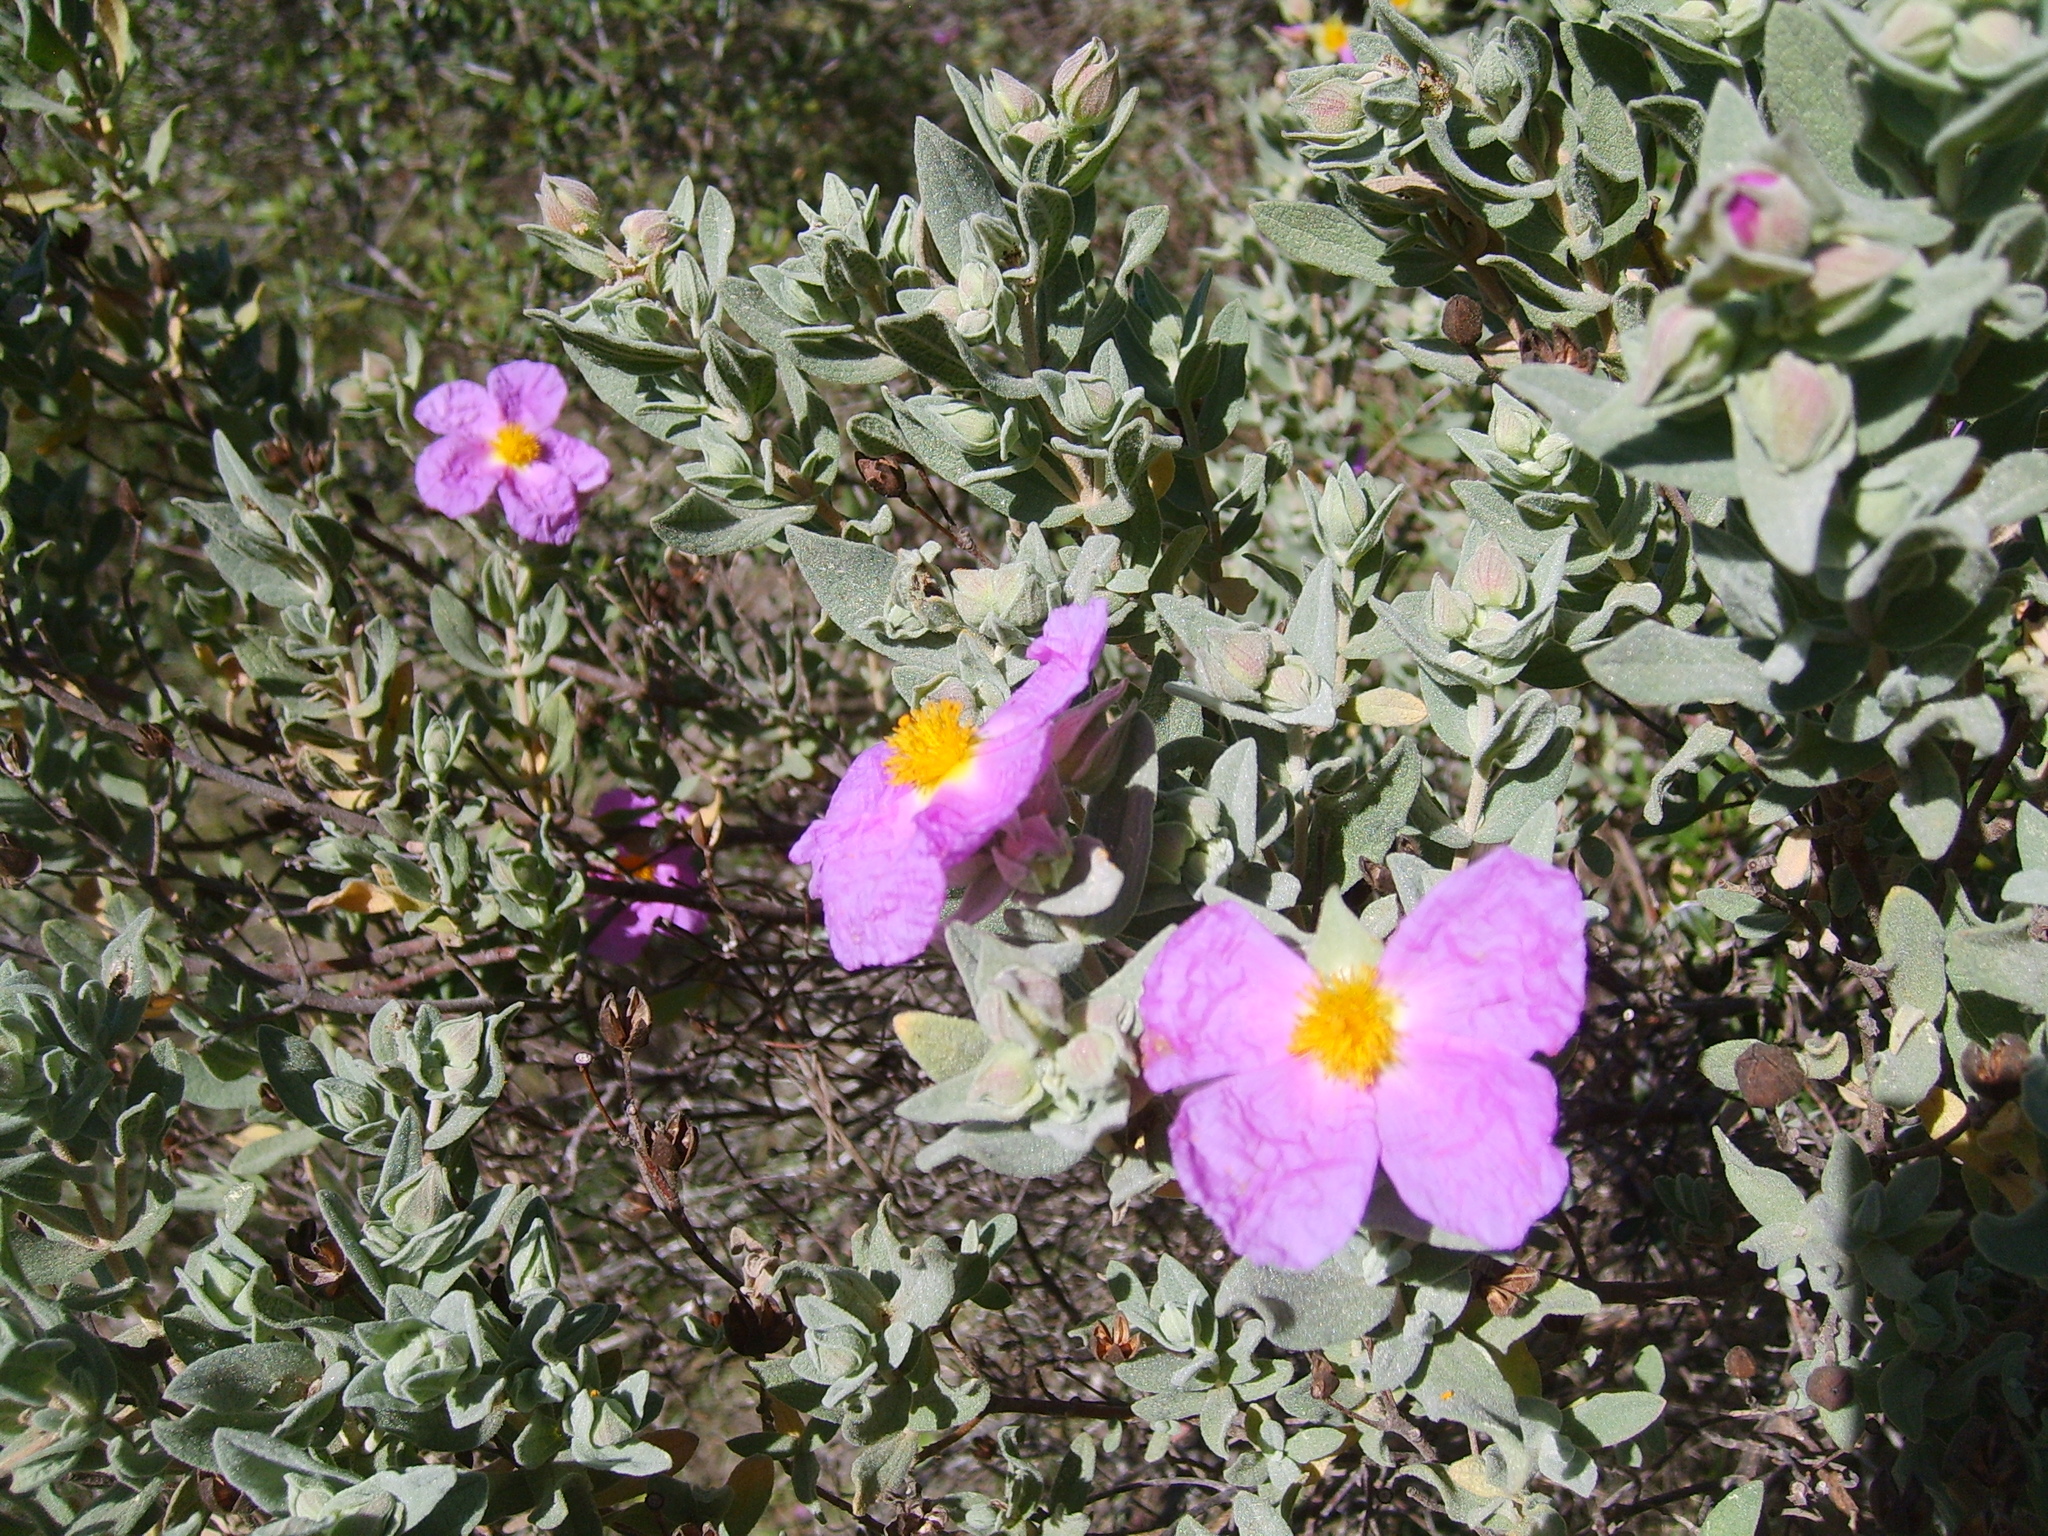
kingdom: Plantae
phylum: Tracheophyta
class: Magnoliopsida
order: Malvales
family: Cistaceae
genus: Cistus
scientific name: Cistus albidus
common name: White-leaf rock-rose
